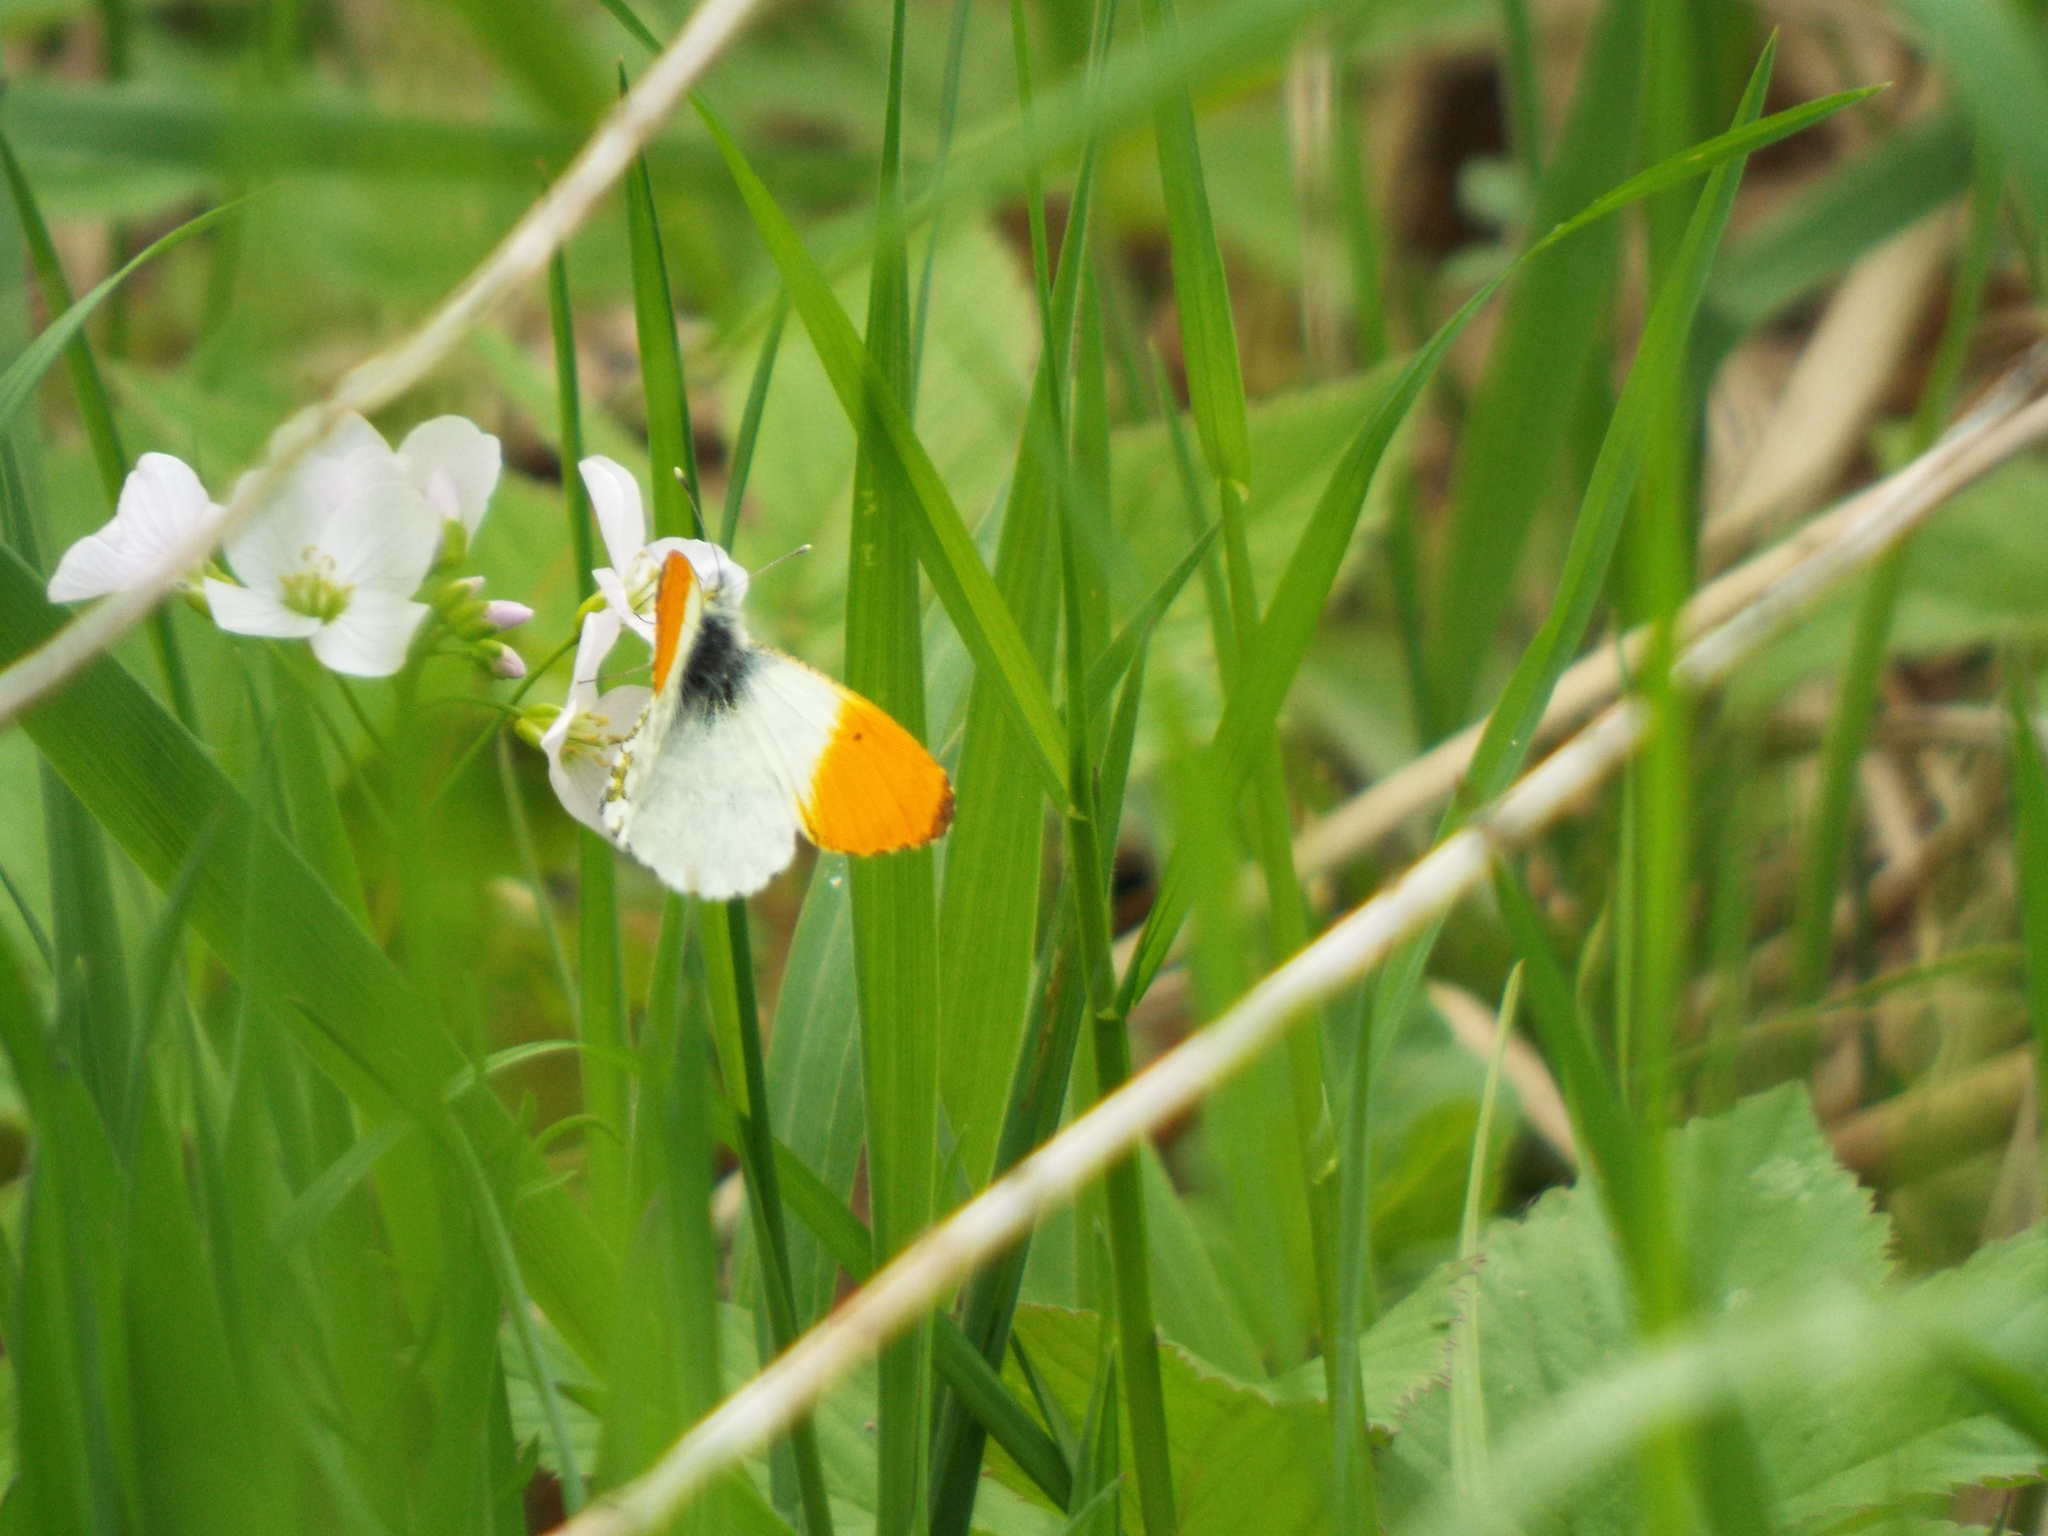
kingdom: Animalia
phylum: Arthropoda
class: Insecta
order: Lepidoptera
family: Pieridae
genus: Anthocharis
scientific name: Anthocharis cardamines
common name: Orange-tip
